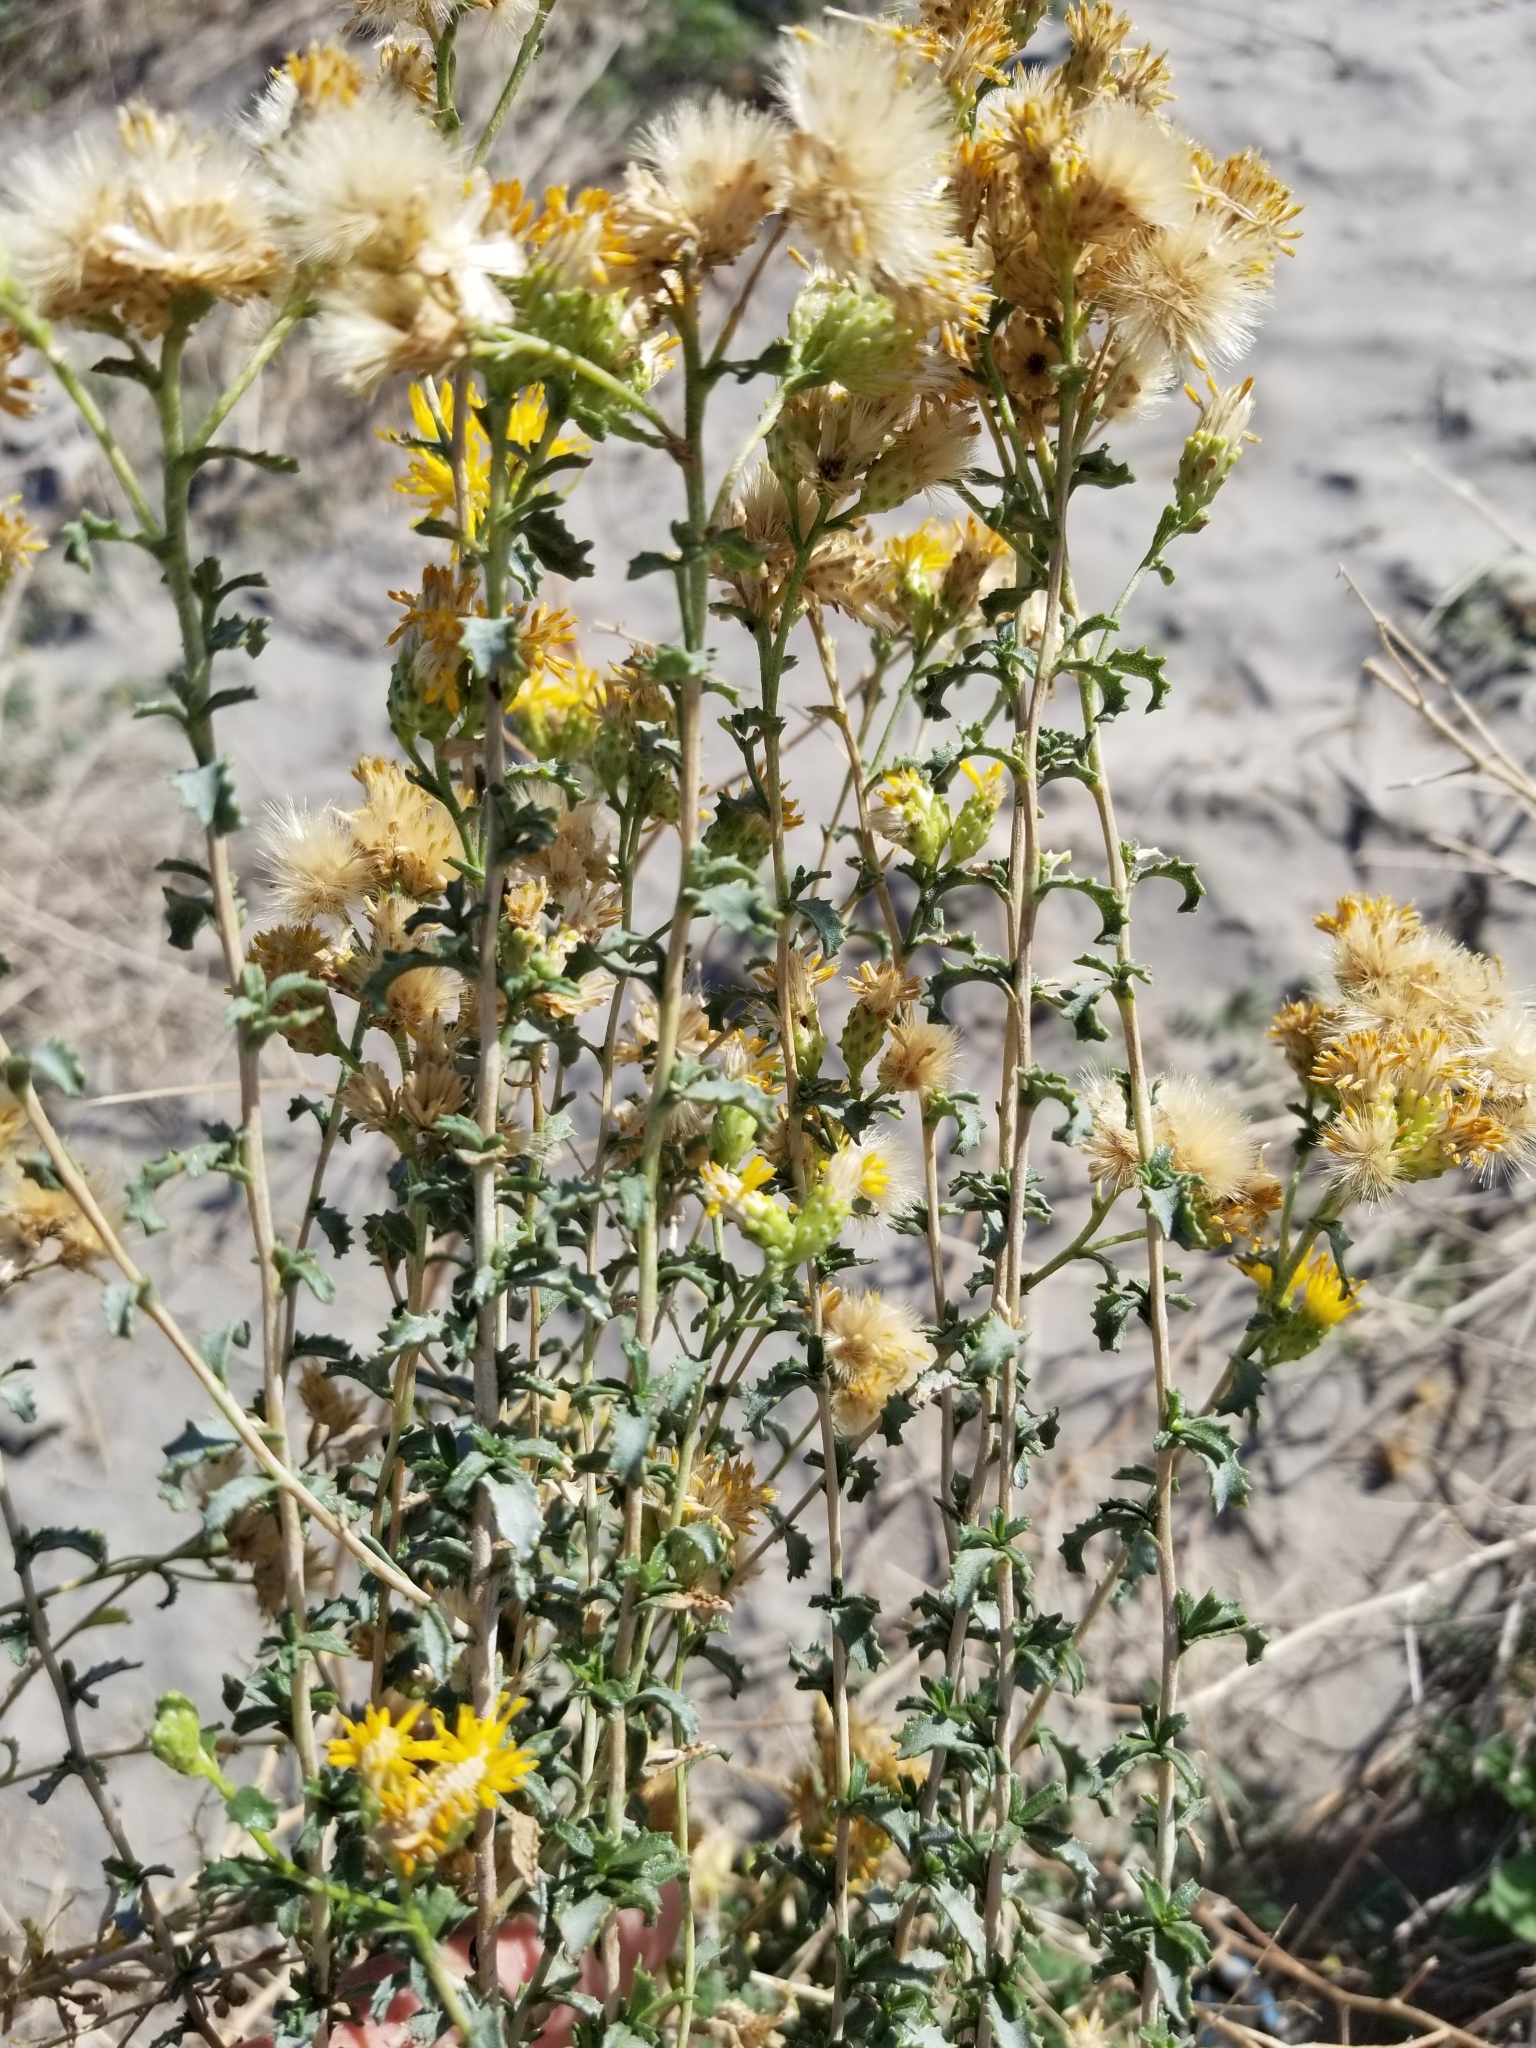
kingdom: Plantae
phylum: Tracheophyta
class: Magnoliopsida
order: Asterales
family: Asteraceae
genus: Isocoma
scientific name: Isocoma acradenia
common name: Alkali jimmyweed
